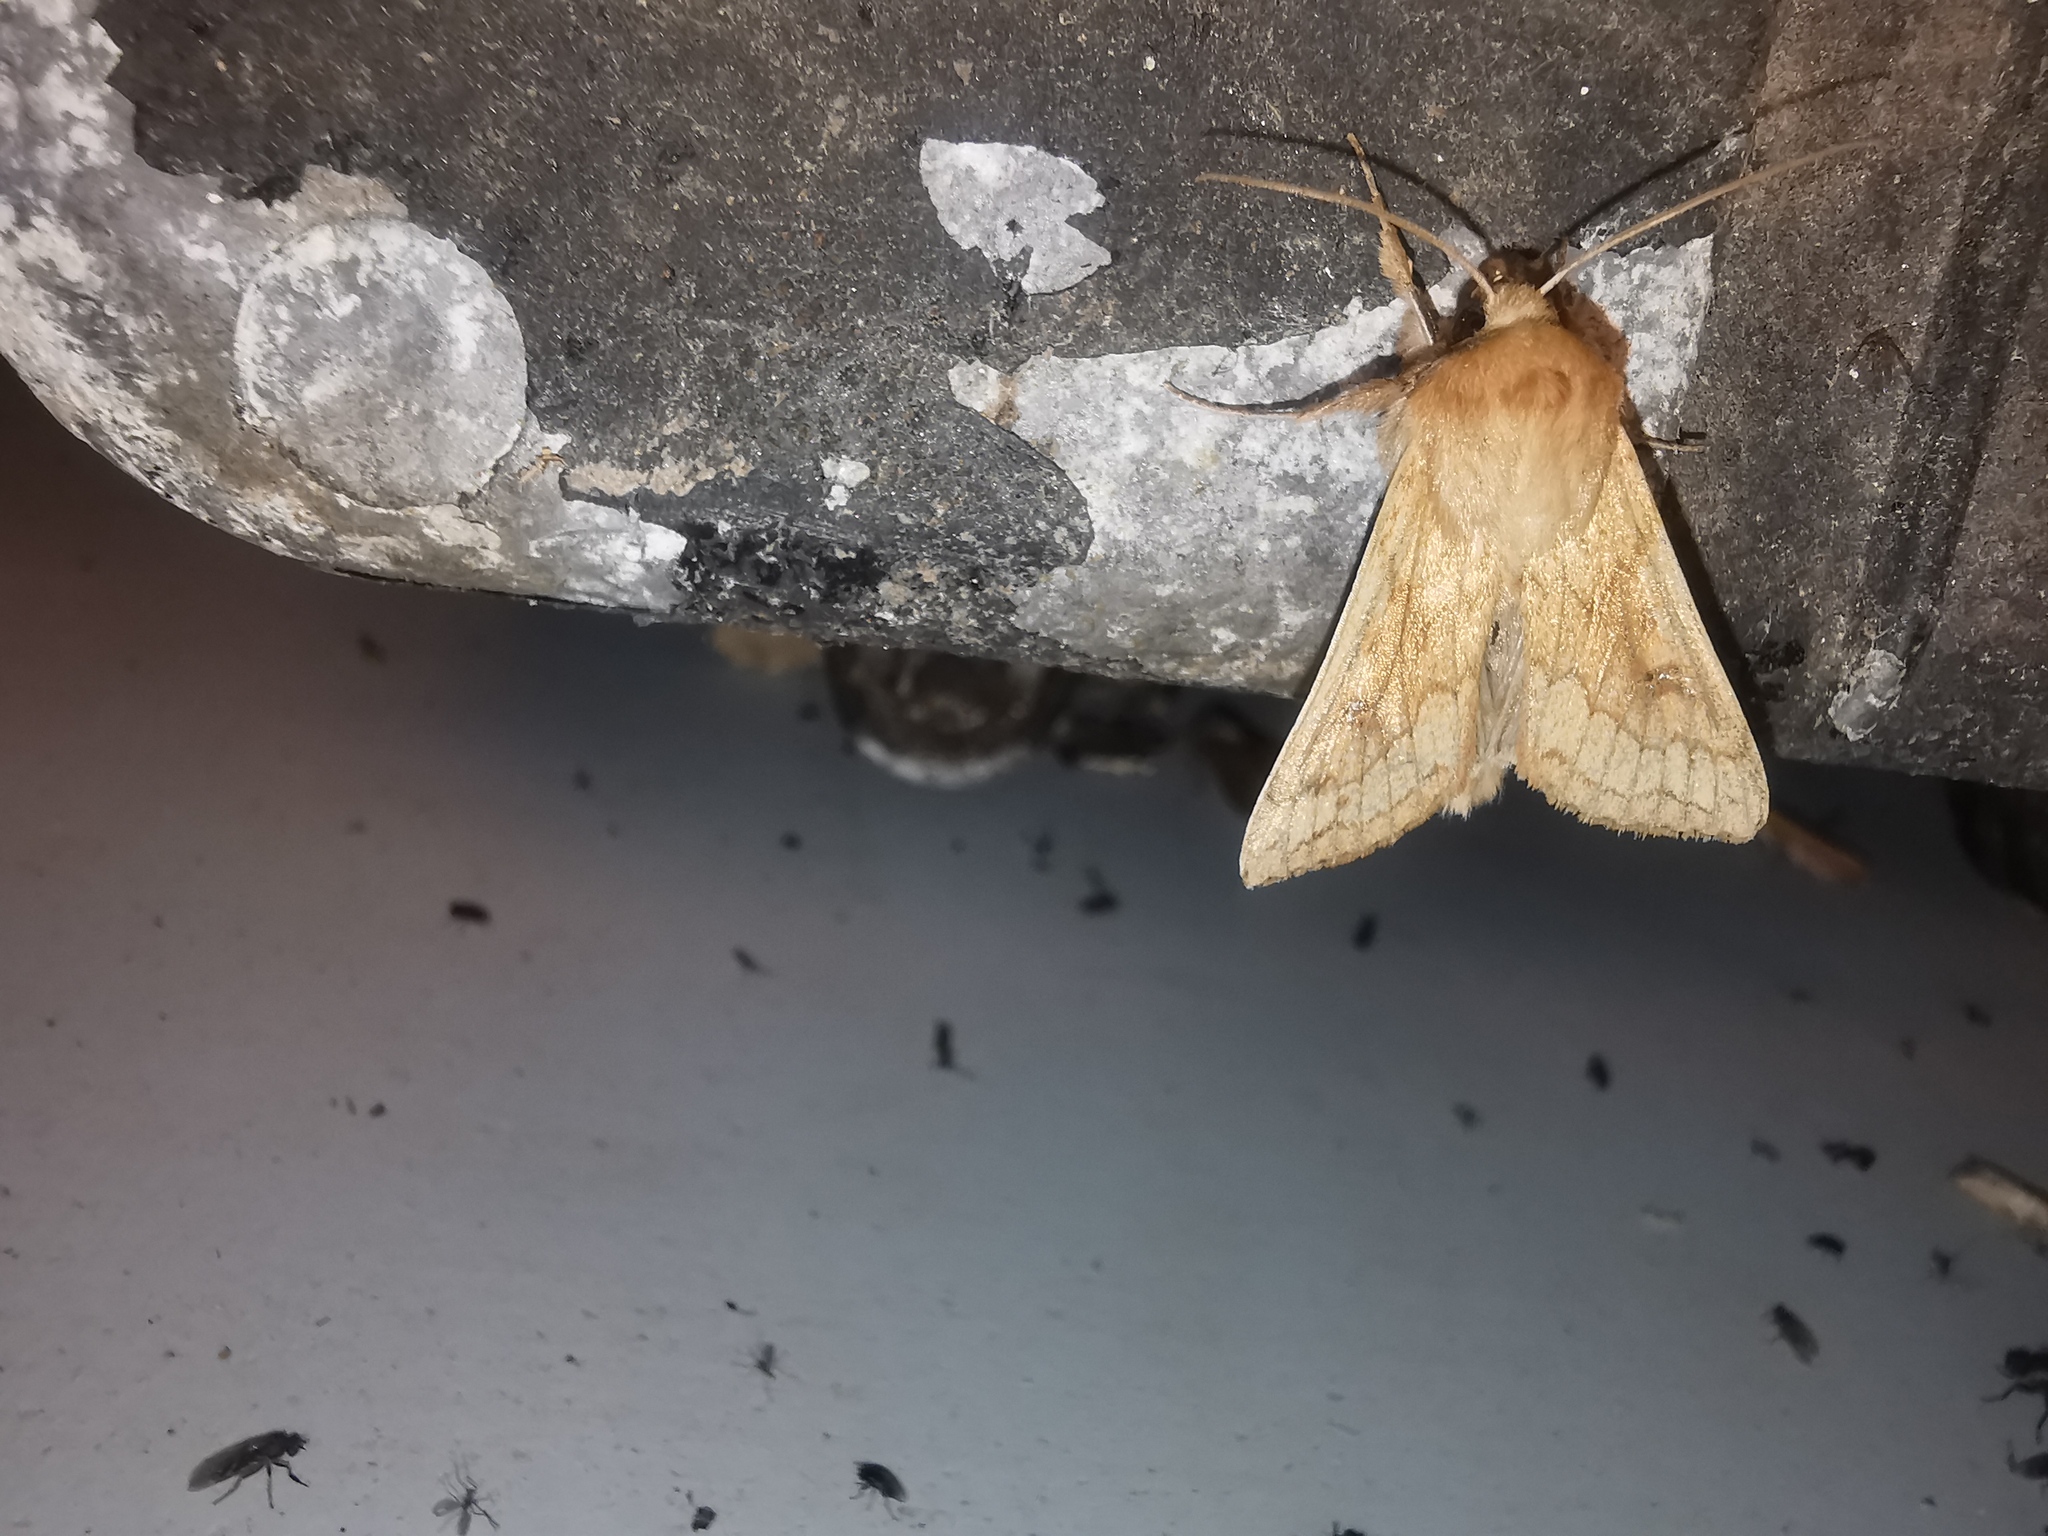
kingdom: Animalia
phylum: Arthropoda
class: Insecta
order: Lepidoptera
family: Noctuidae
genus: Mythimna
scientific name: Mythimna vitellina
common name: Delicate
